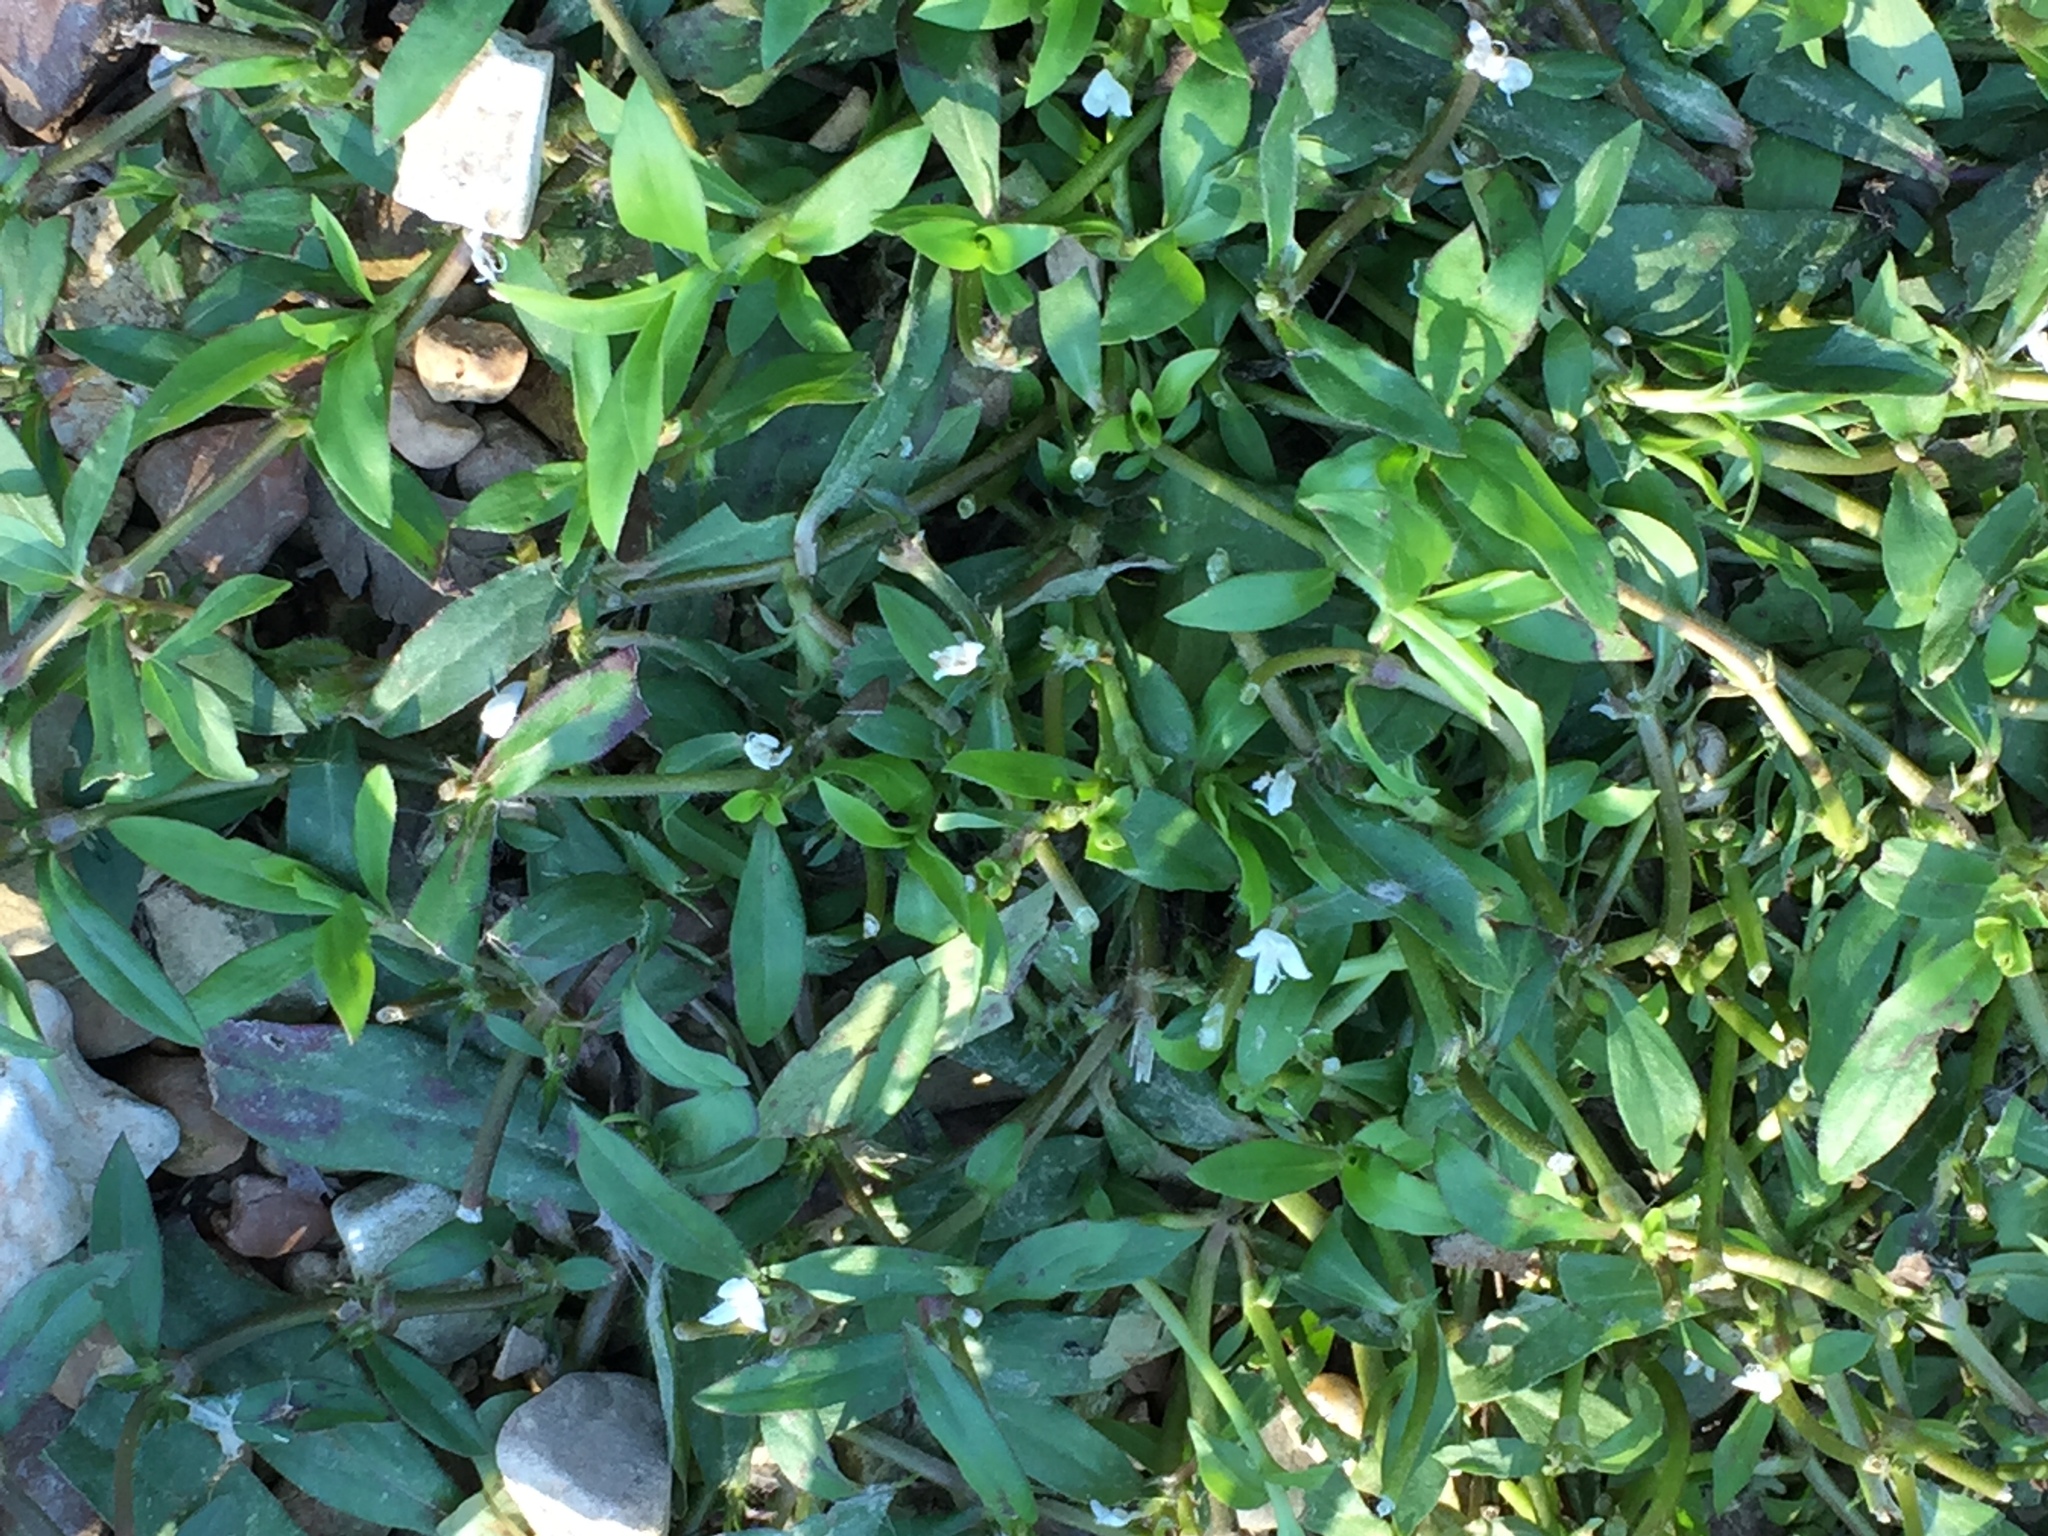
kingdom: Plantae
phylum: Tracheophyta
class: Magnoliopsida
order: Gentianales
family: Rubiaceae
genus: Diodia
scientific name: Diodia virginiana
